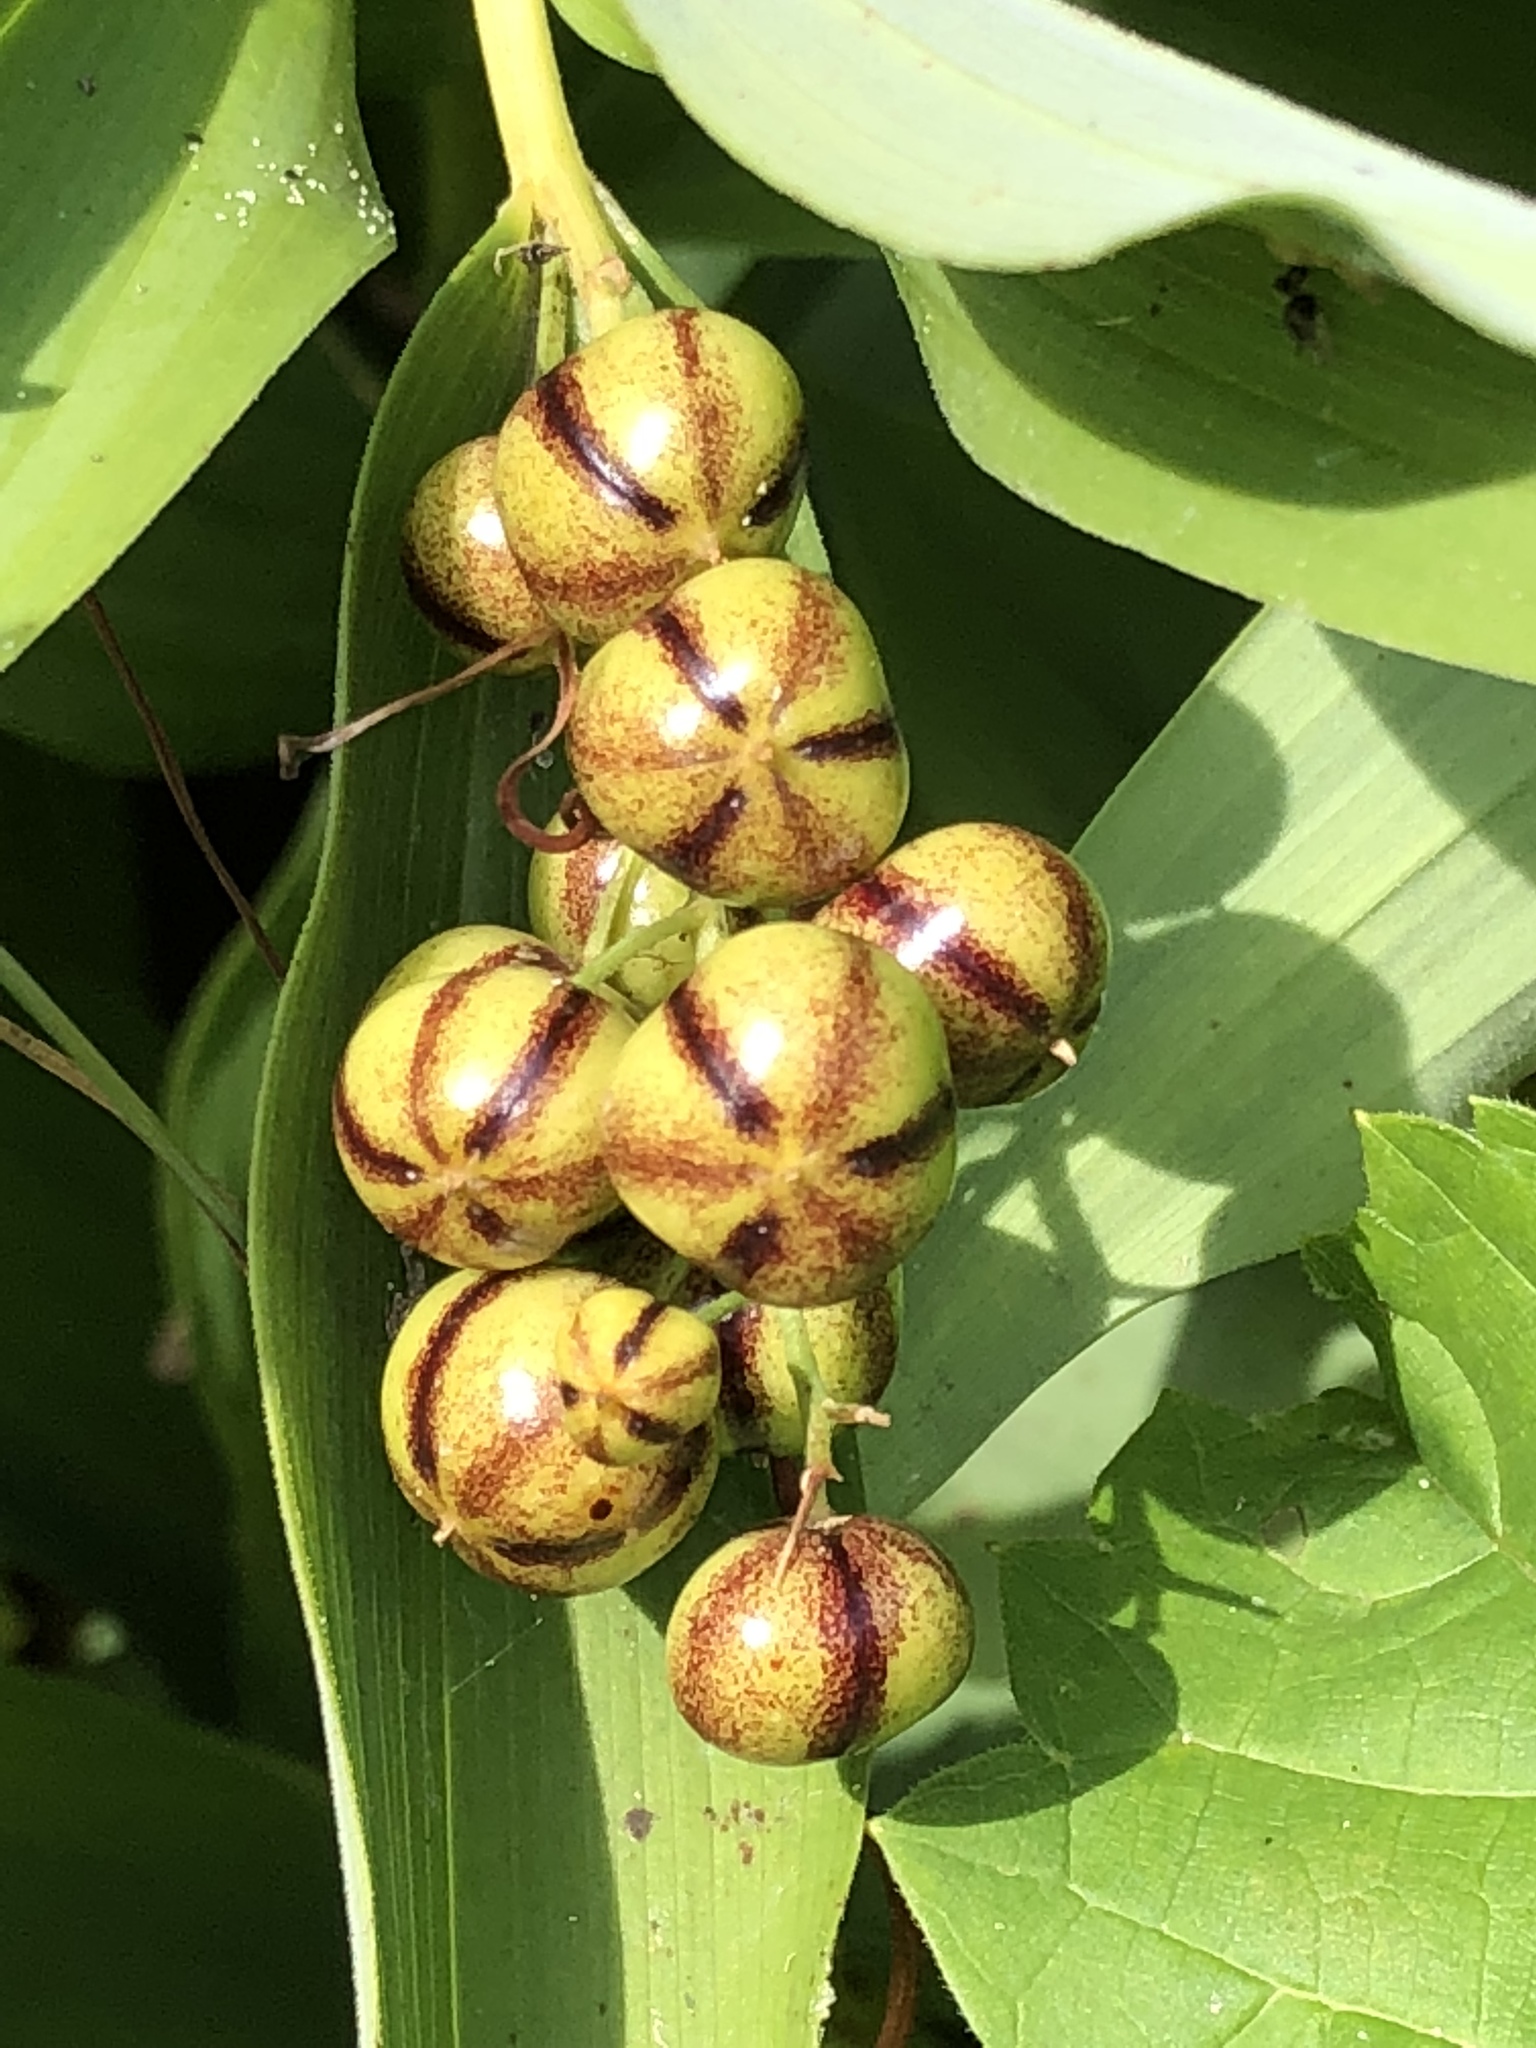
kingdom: Plantae
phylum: Tracheophyta
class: Liliopsida
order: Asparagales
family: Asparagaceae
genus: Maianthemum
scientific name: Maianthemum stellatum
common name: Little false solomon's seal
